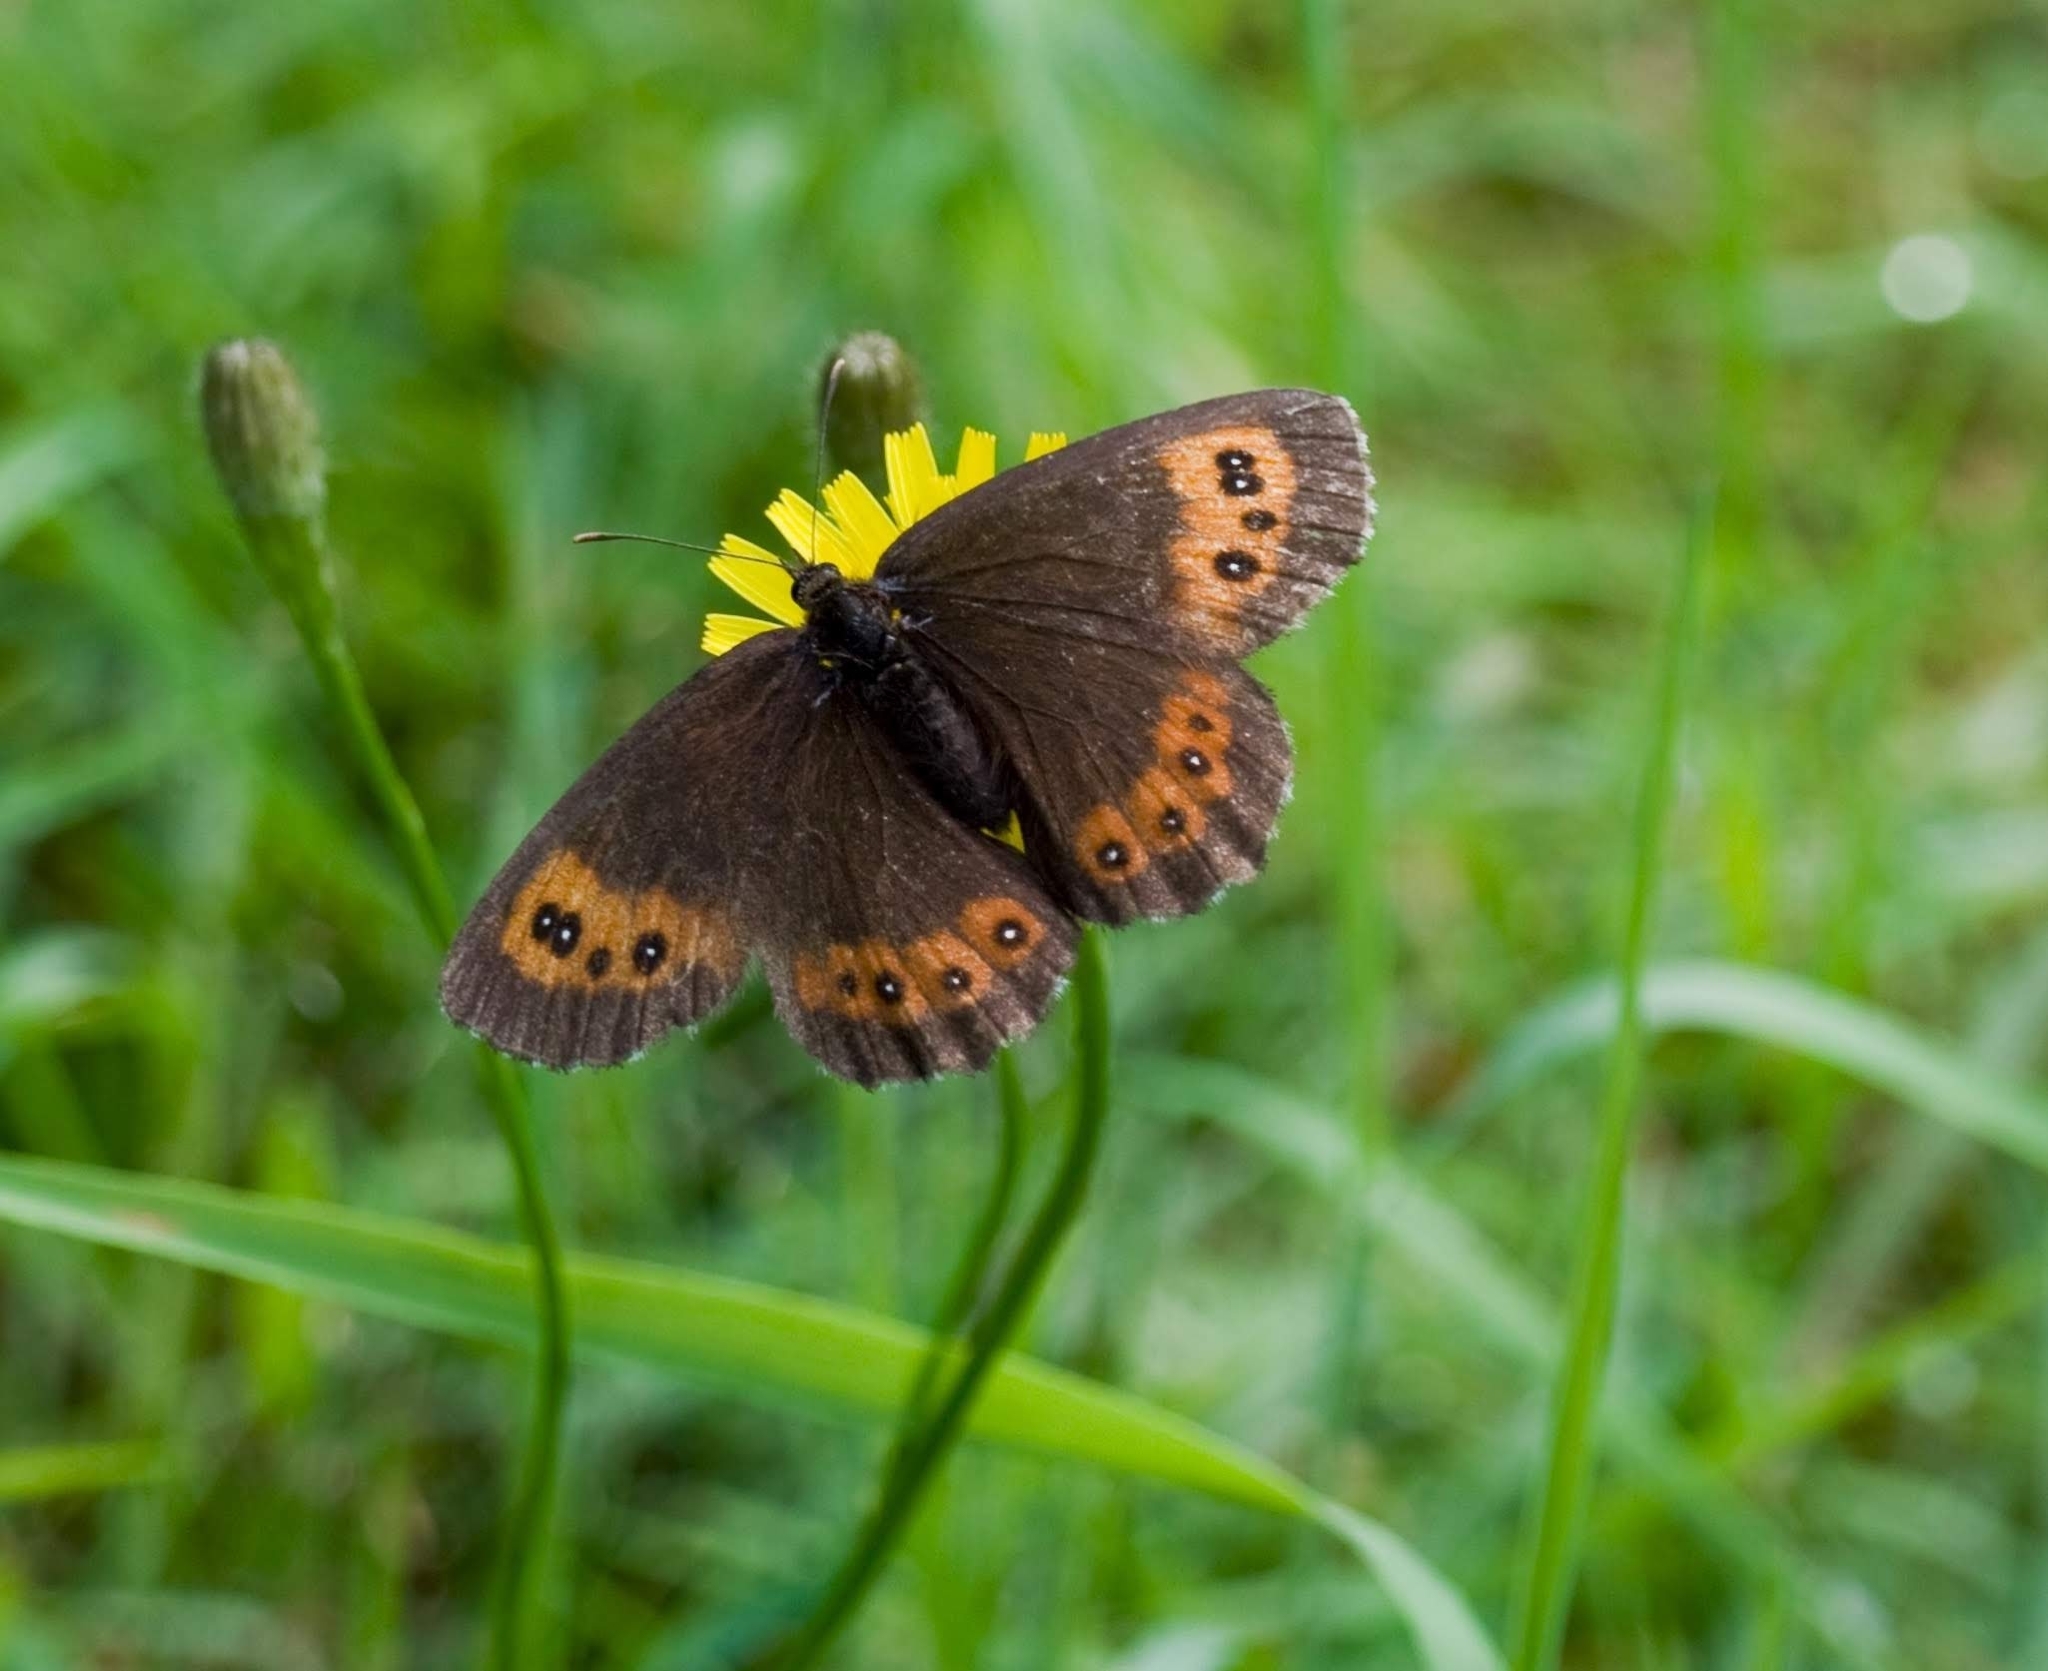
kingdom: Animalia
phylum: Arthropoda
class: Insecta
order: Lepidoptera
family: Nymphalidae
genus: Erebia
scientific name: Erebia ligea
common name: Arran brown
